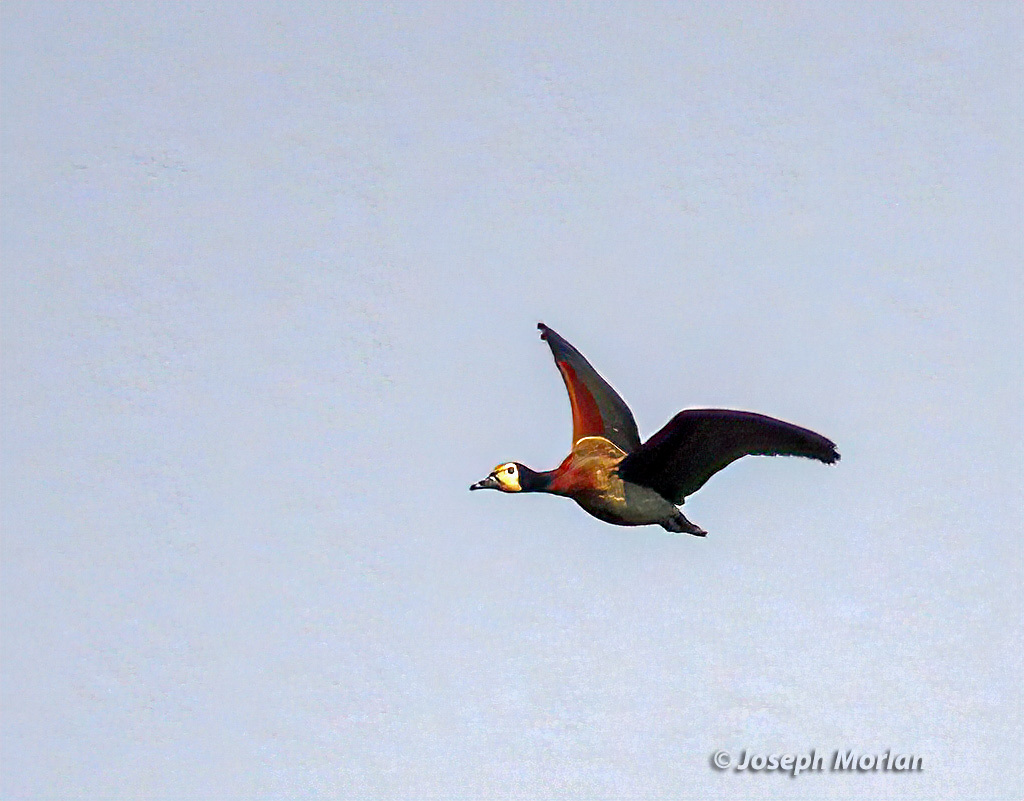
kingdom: Animalia
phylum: Chordata
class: Aves
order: Anseriformes
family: Anatidae
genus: Dendrocygna
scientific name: Dendrocygna viduata
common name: White-faced whistling duck
